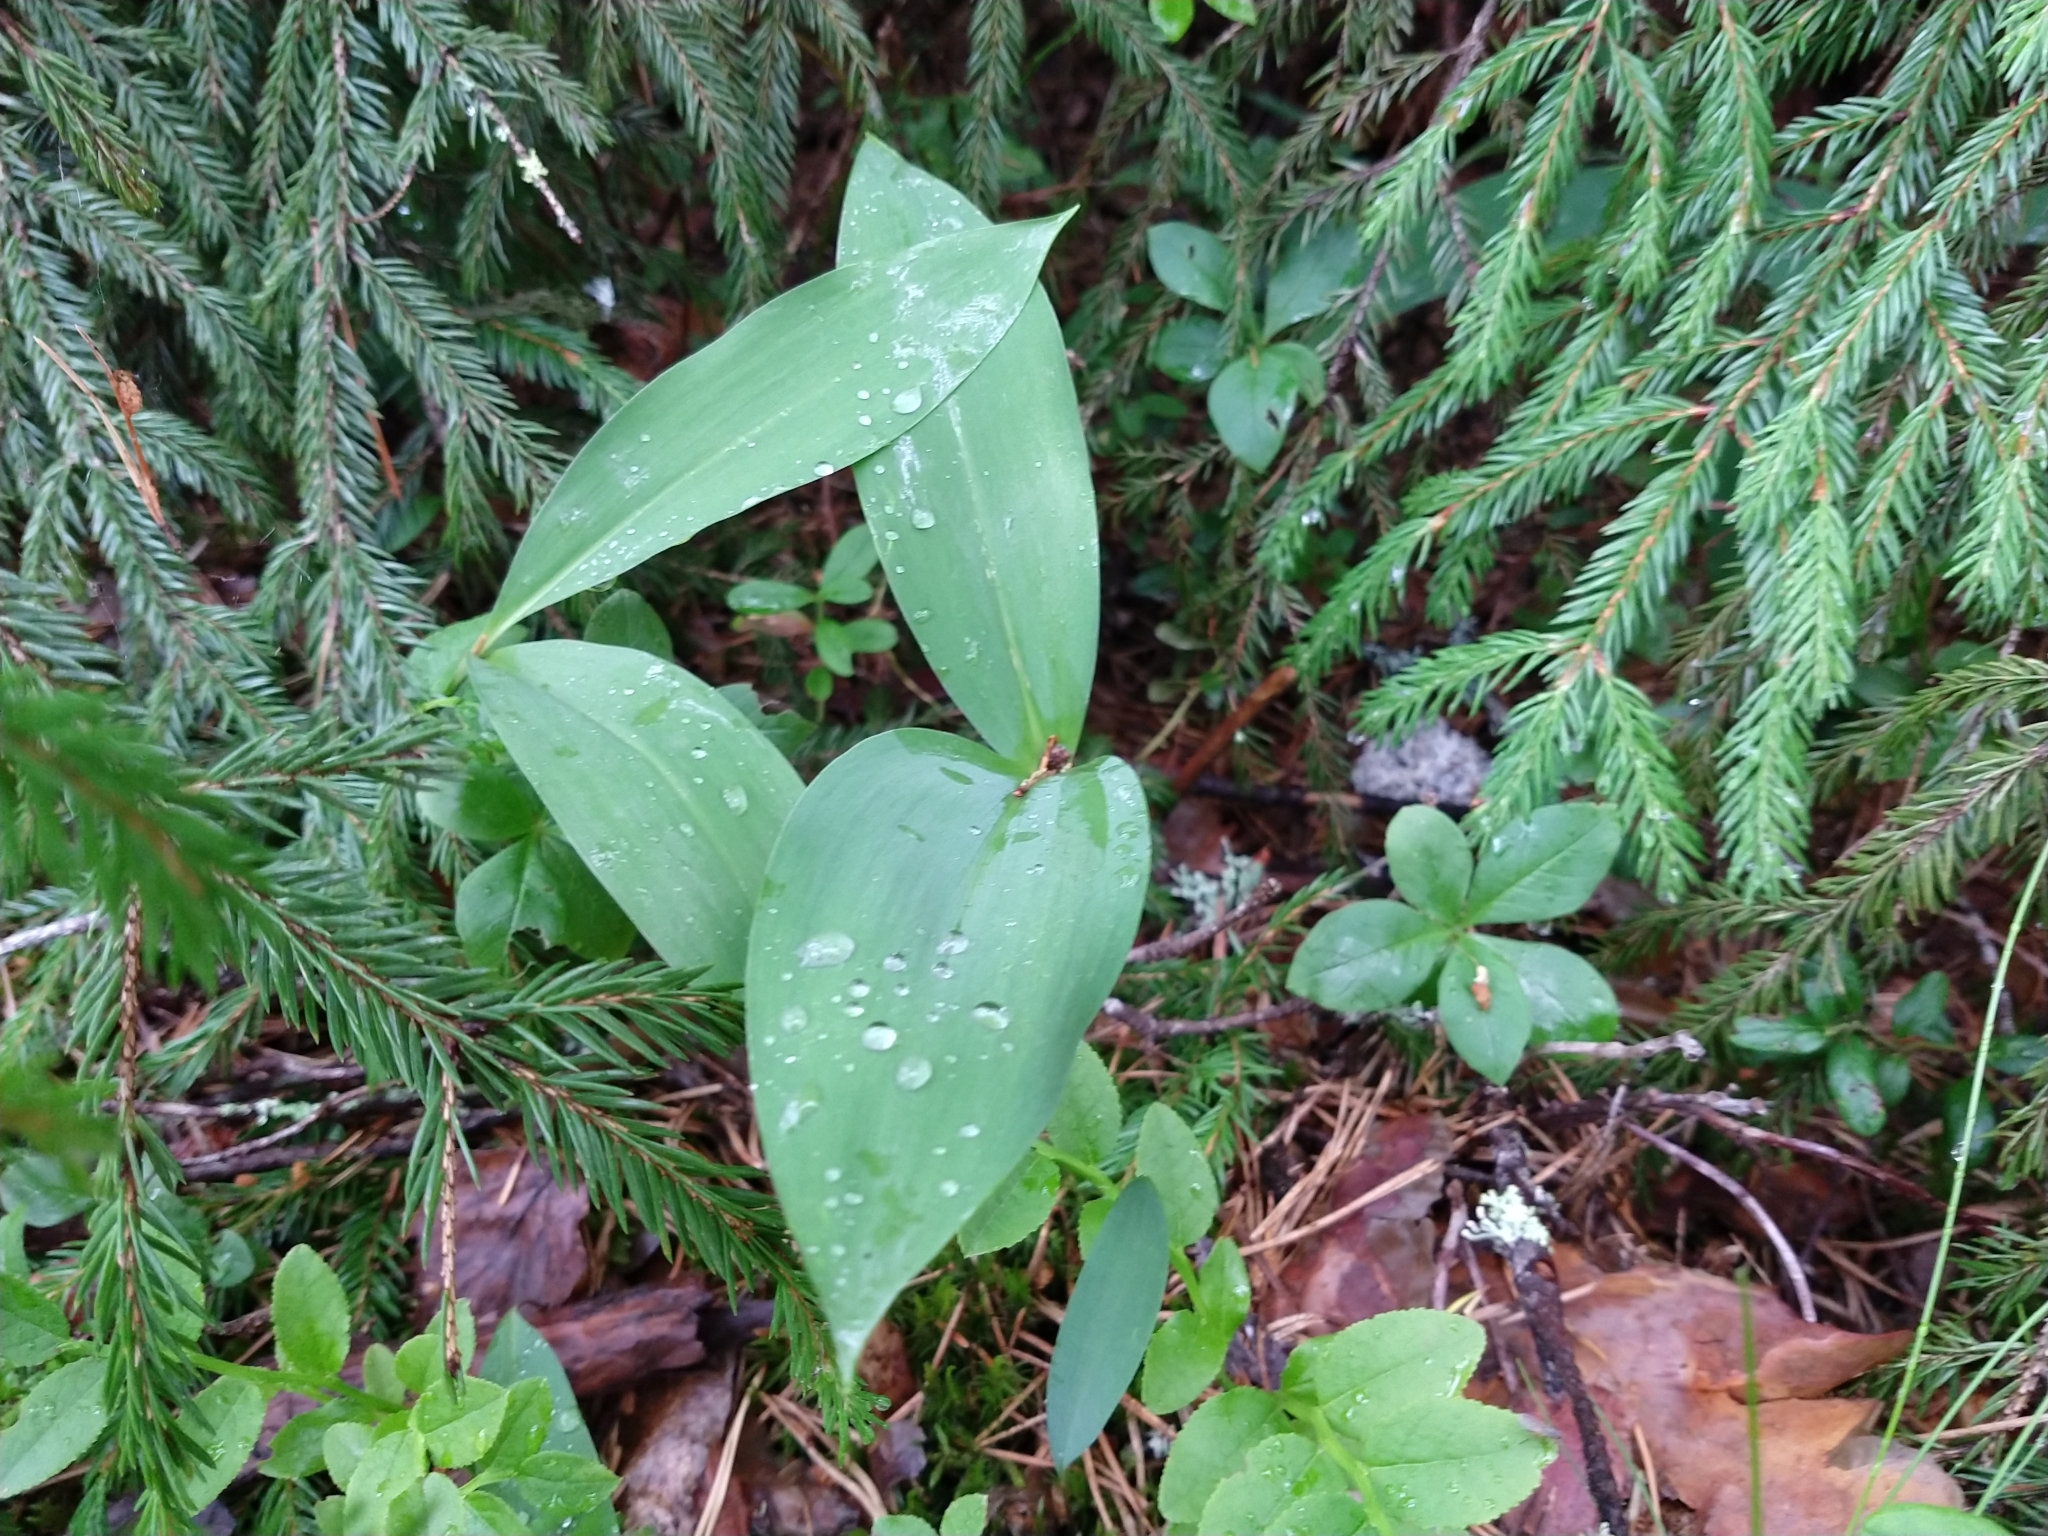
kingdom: Plantae
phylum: Tracheophyta
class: Liliopsida
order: Asparagales
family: Asparagaceae
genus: Convallaria
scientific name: Convallaria majalis
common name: Lily-of-the-valley
